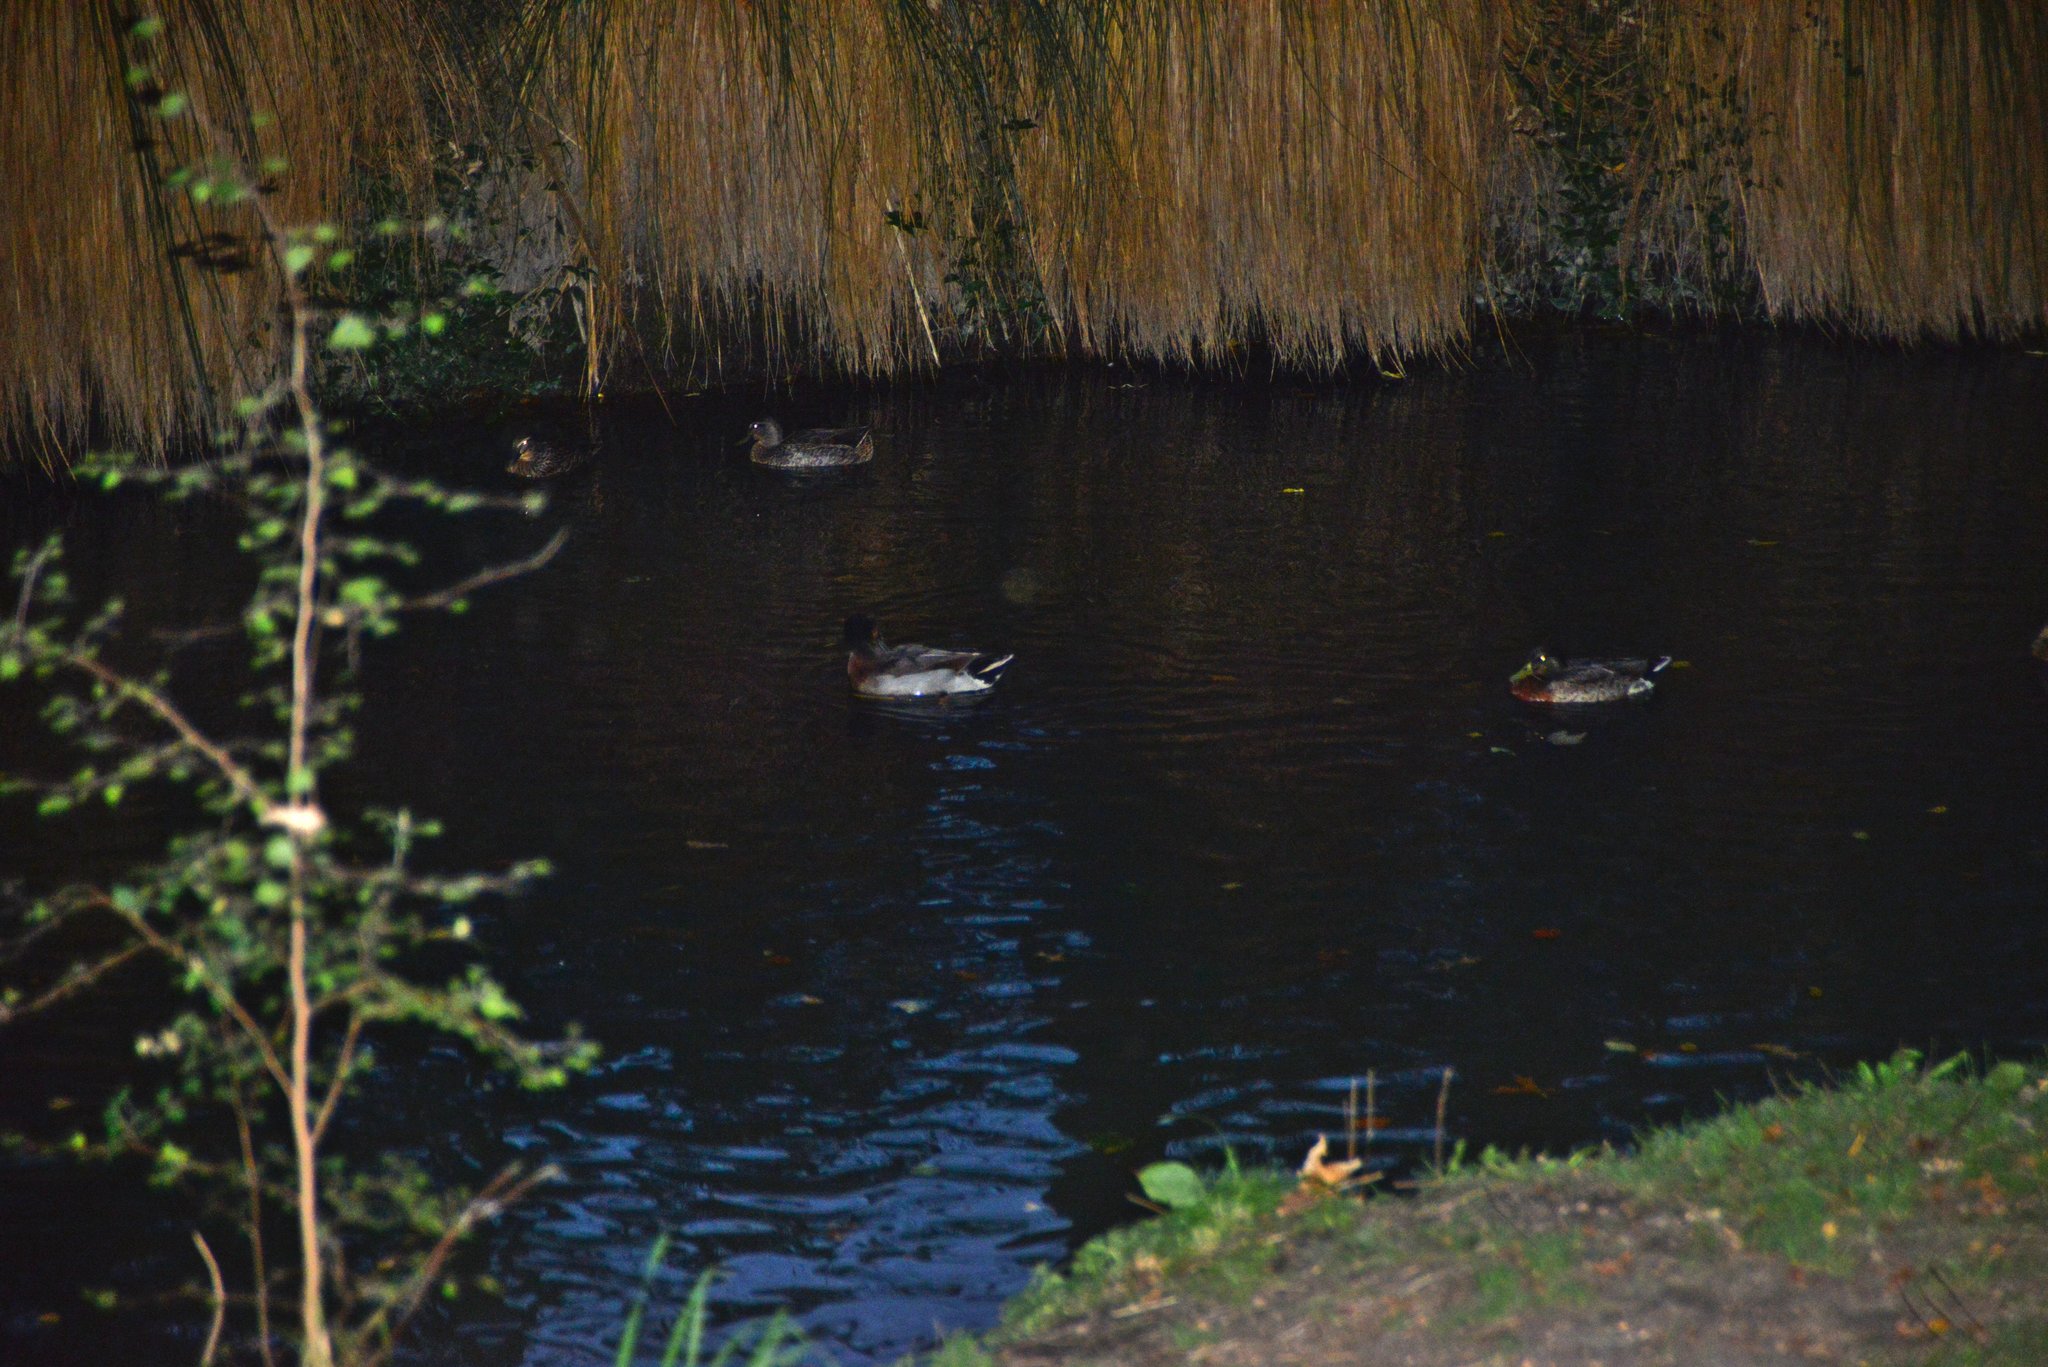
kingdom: Animalia
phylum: Chordata
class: Aves
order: Anseriformes
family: Anatidae
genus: Anas
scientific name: Anas platyrhynchos
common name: Mallard
